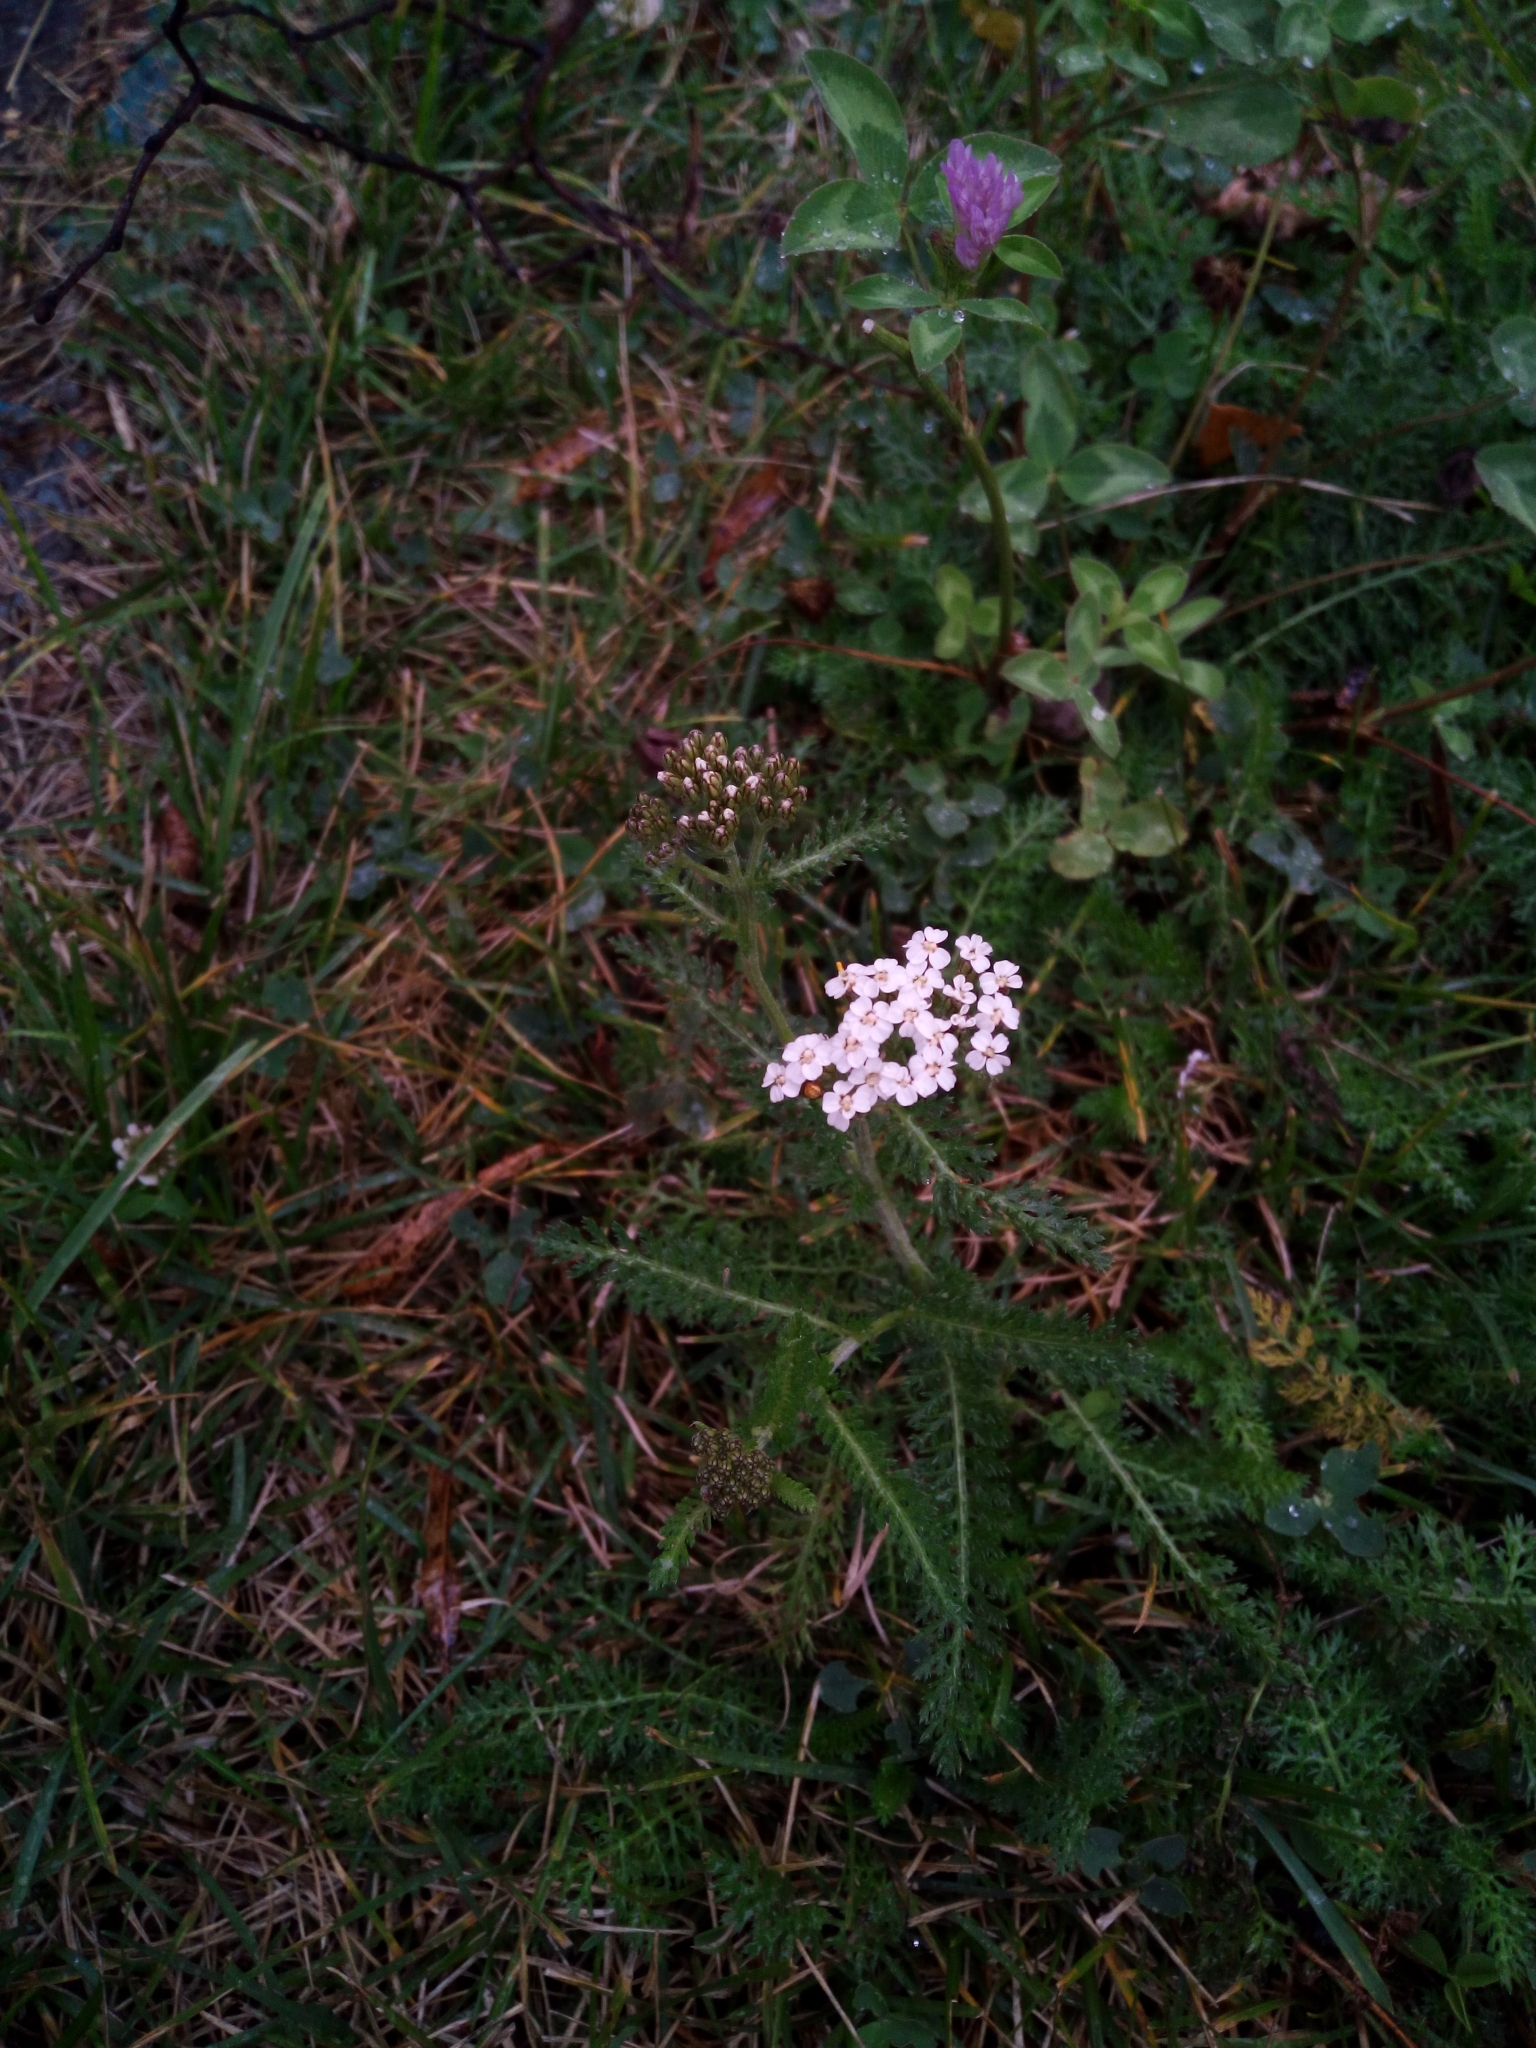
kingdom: Plantae
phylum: Tracheophyta
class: Magnoliopsida
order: Asterales
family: Asteraceae
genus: Achillea
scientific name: Achillea millefolium
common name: Yarrow
